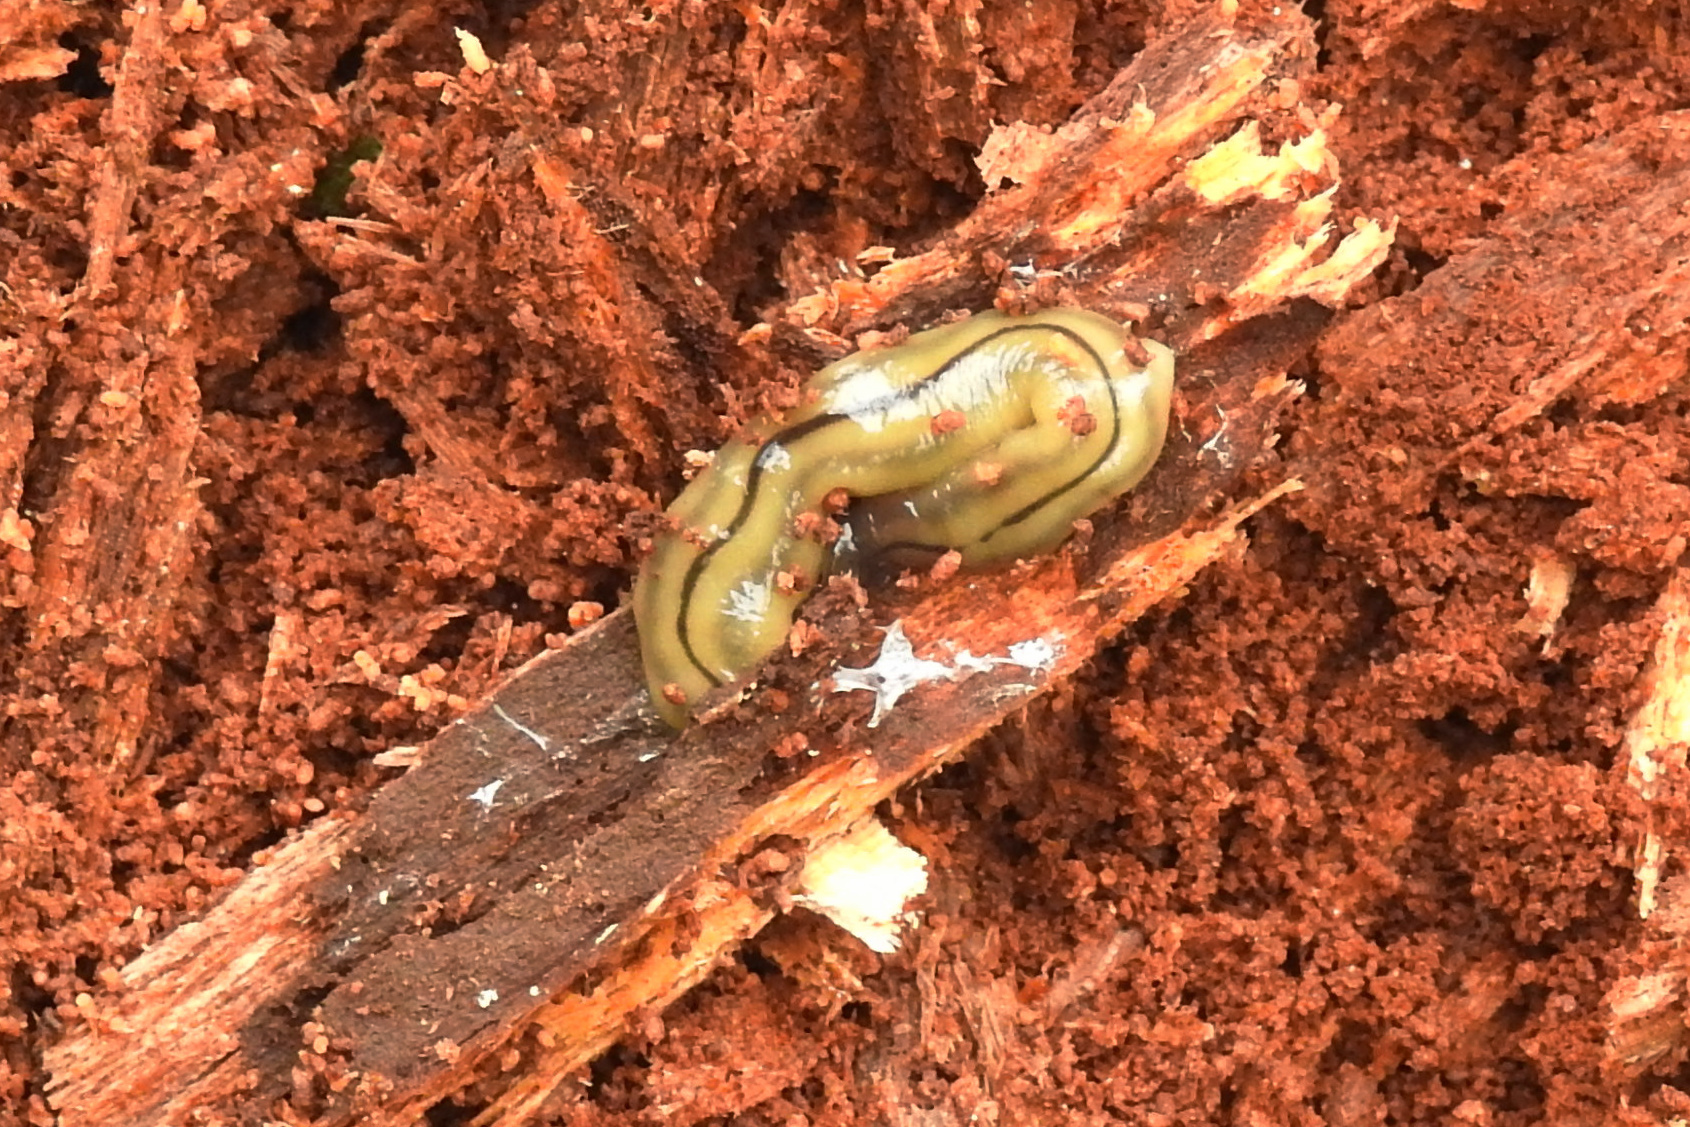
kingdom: Animalia
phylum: Platyhelminthes
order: Tricladida
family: Geoplanidae
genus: Bipalium
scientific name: Bipalium pennsylvanicum
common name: Three-lined land planarian
